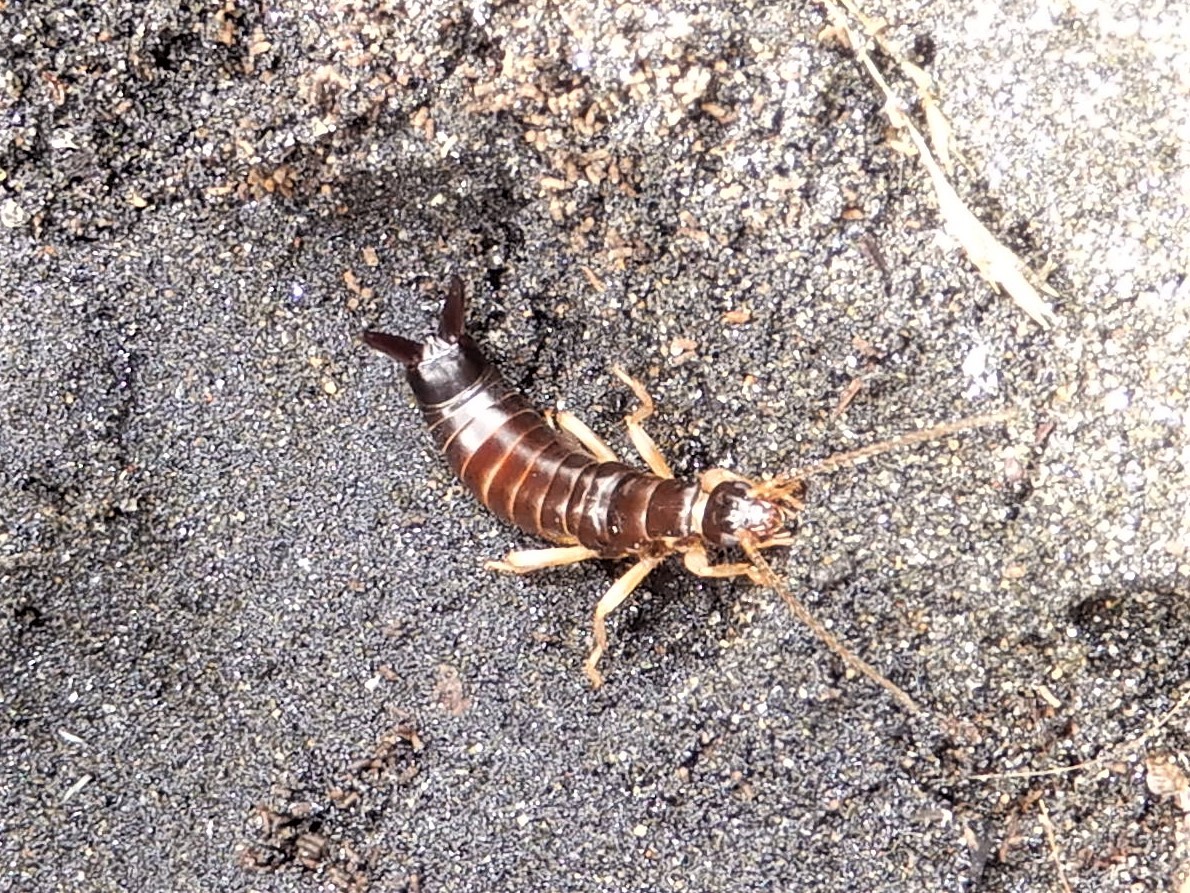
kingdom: Animalia
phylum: Arthropoda
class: Insecta
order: Dermaptera
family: Anisolabididae
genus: Anisolabis
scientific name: Anisolabis littorea
